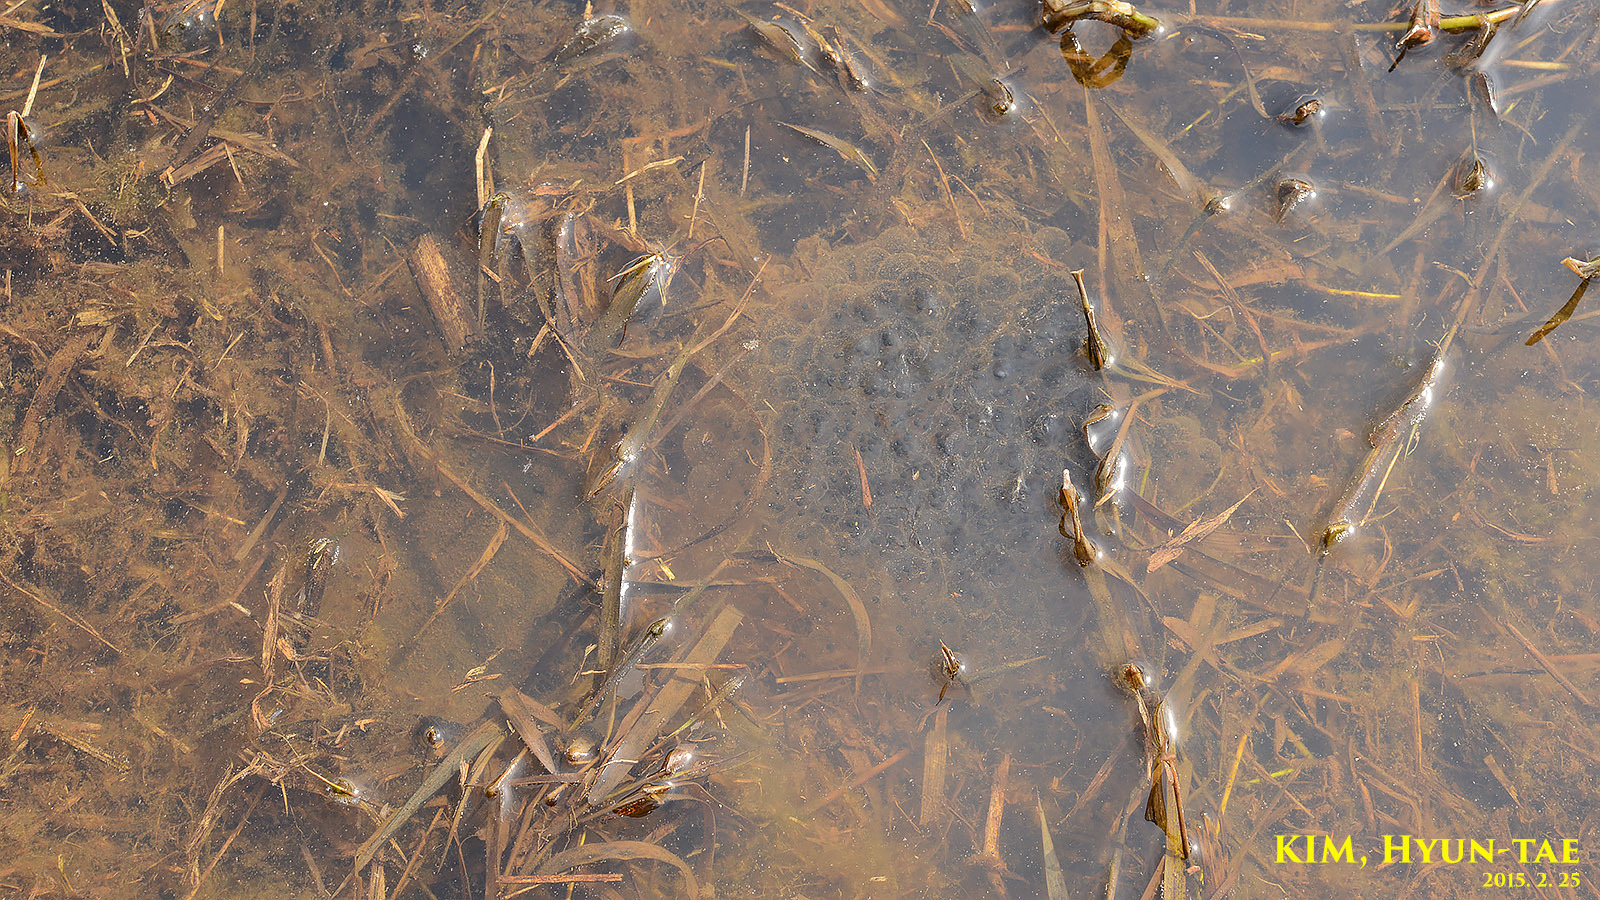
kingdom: Animalia
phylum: Chordata
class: Amphibia
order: Anura
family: Ranidae
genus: Rana
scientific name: Rana coreana
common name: Korean brown frog
